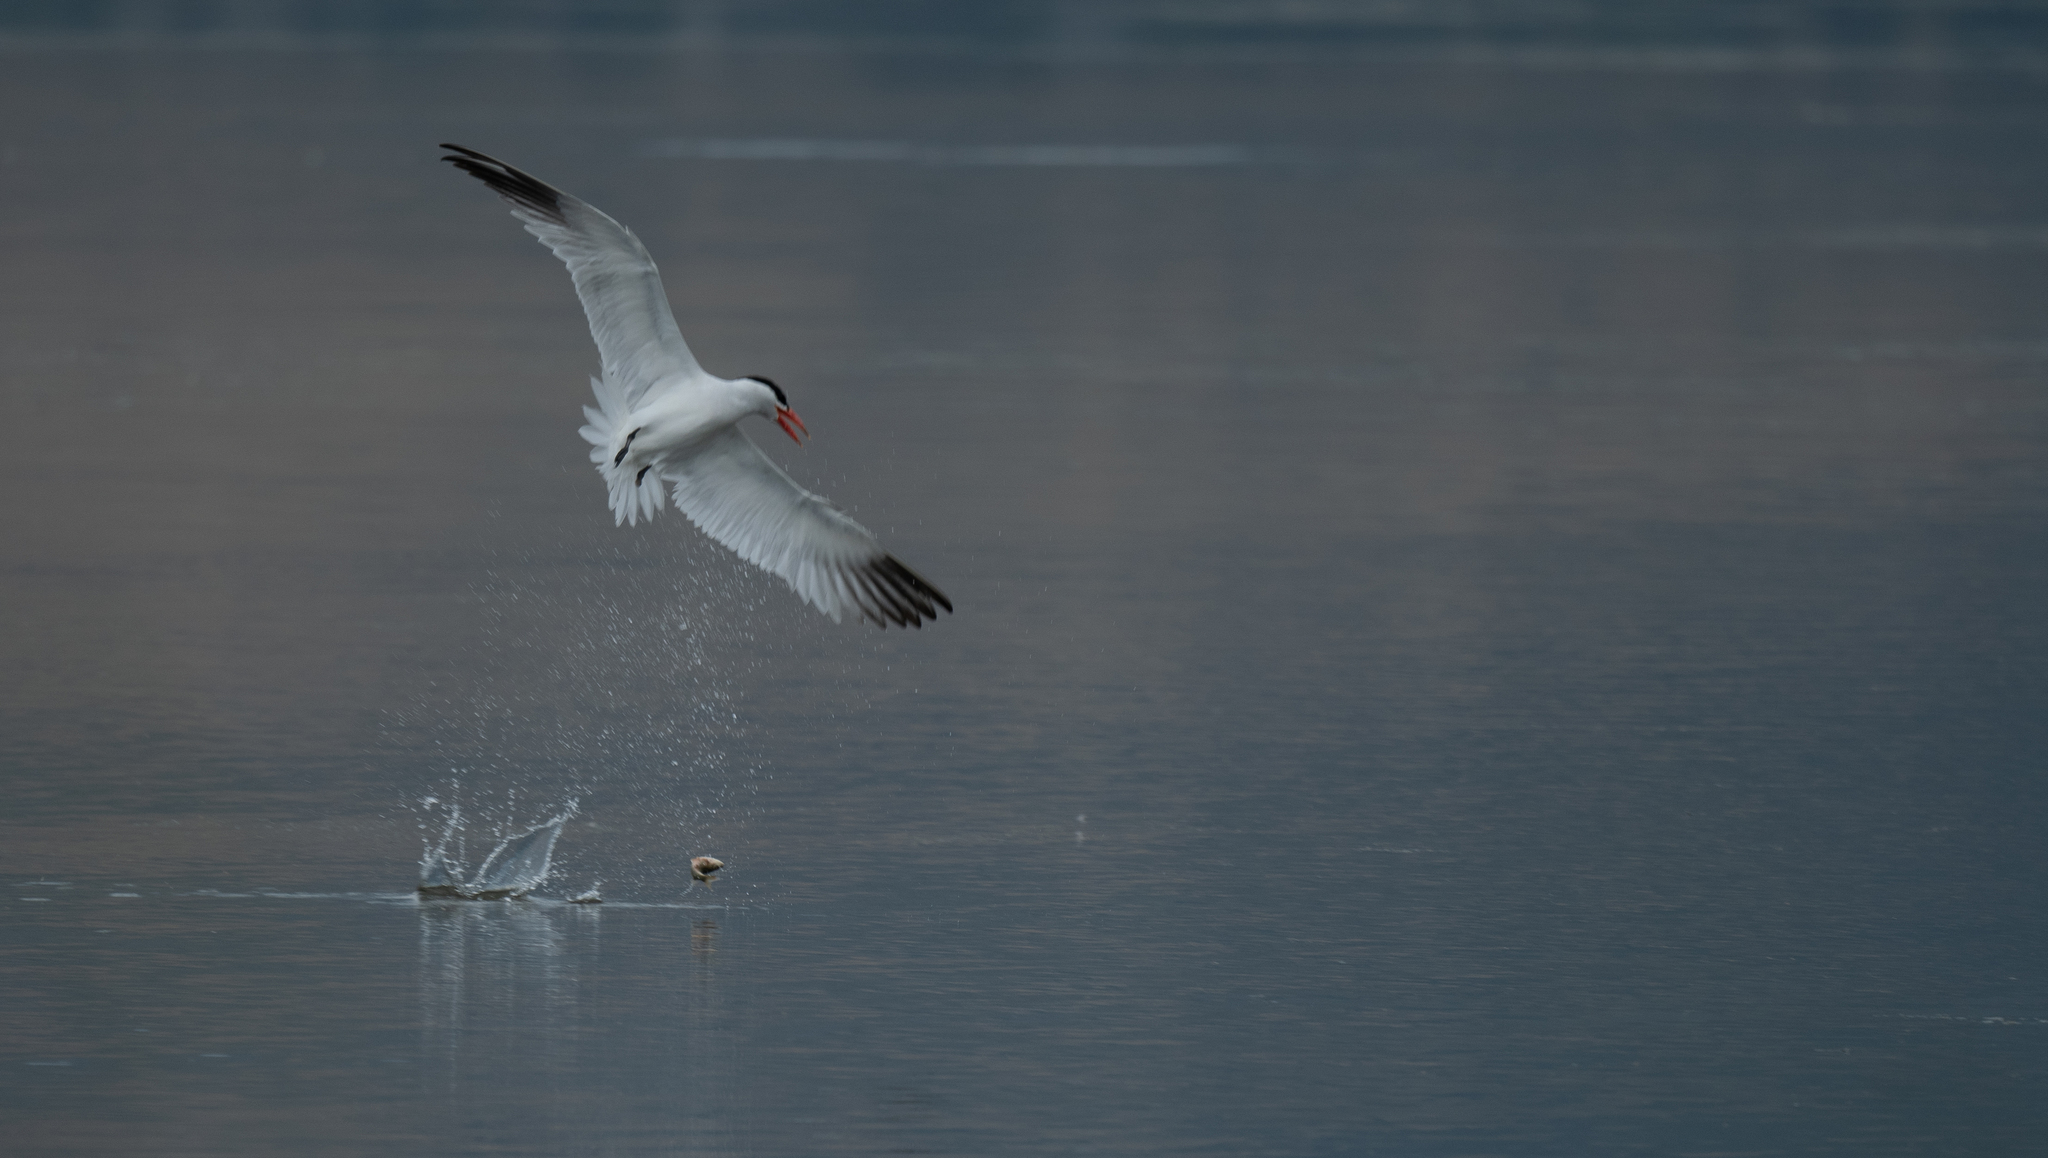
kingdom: Animalia
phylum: Chordata
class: Aves
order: Charadriiformes
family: Laridae
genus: Hydroprogne
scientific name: Hydroprogne caspia
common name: Caspian tern
